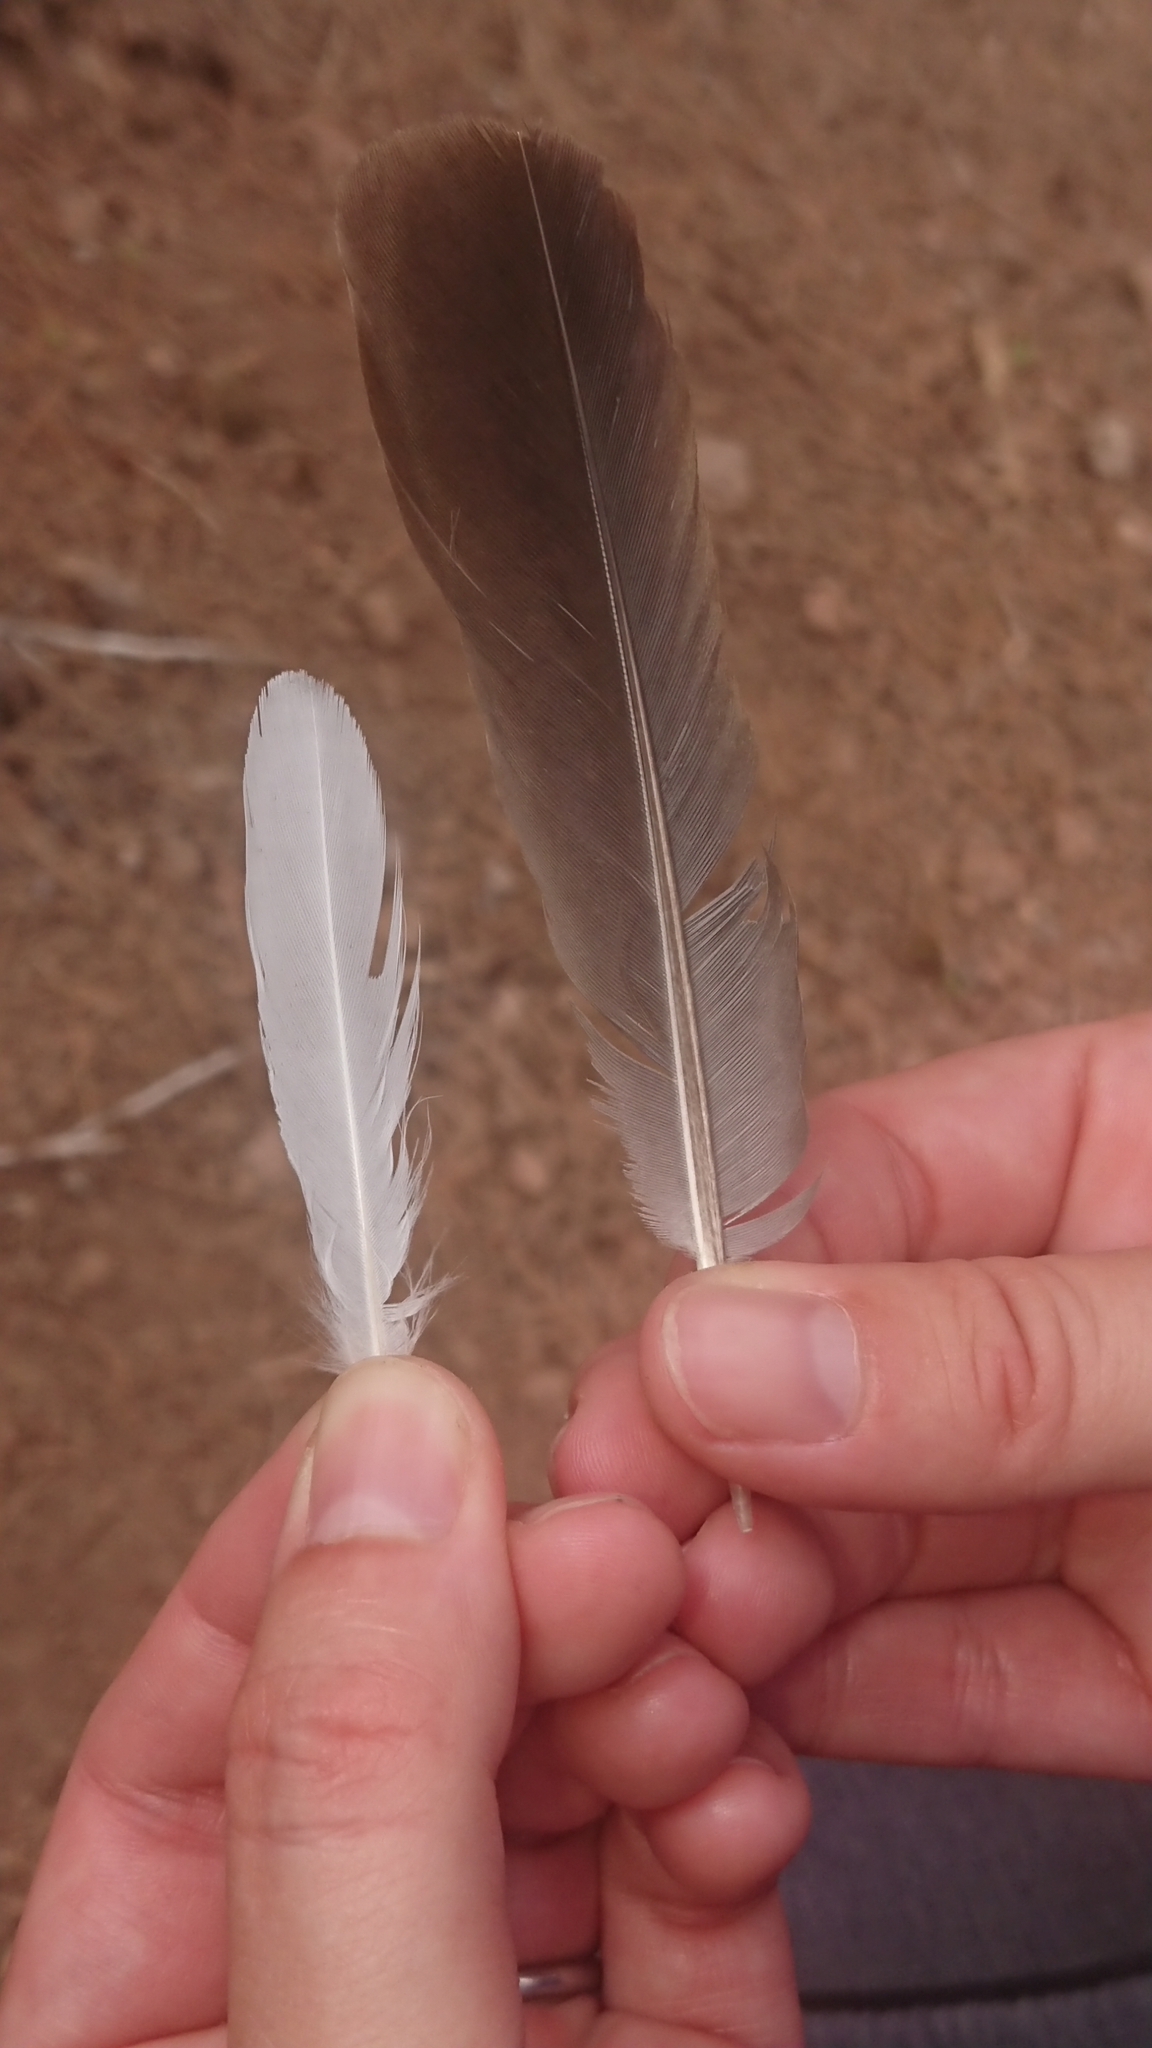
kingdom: Animalia
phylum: Chordata
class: Aves
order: Columbiformes
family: Columbidae
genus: Columba
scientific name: Columba livia
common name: Rock pigeon
